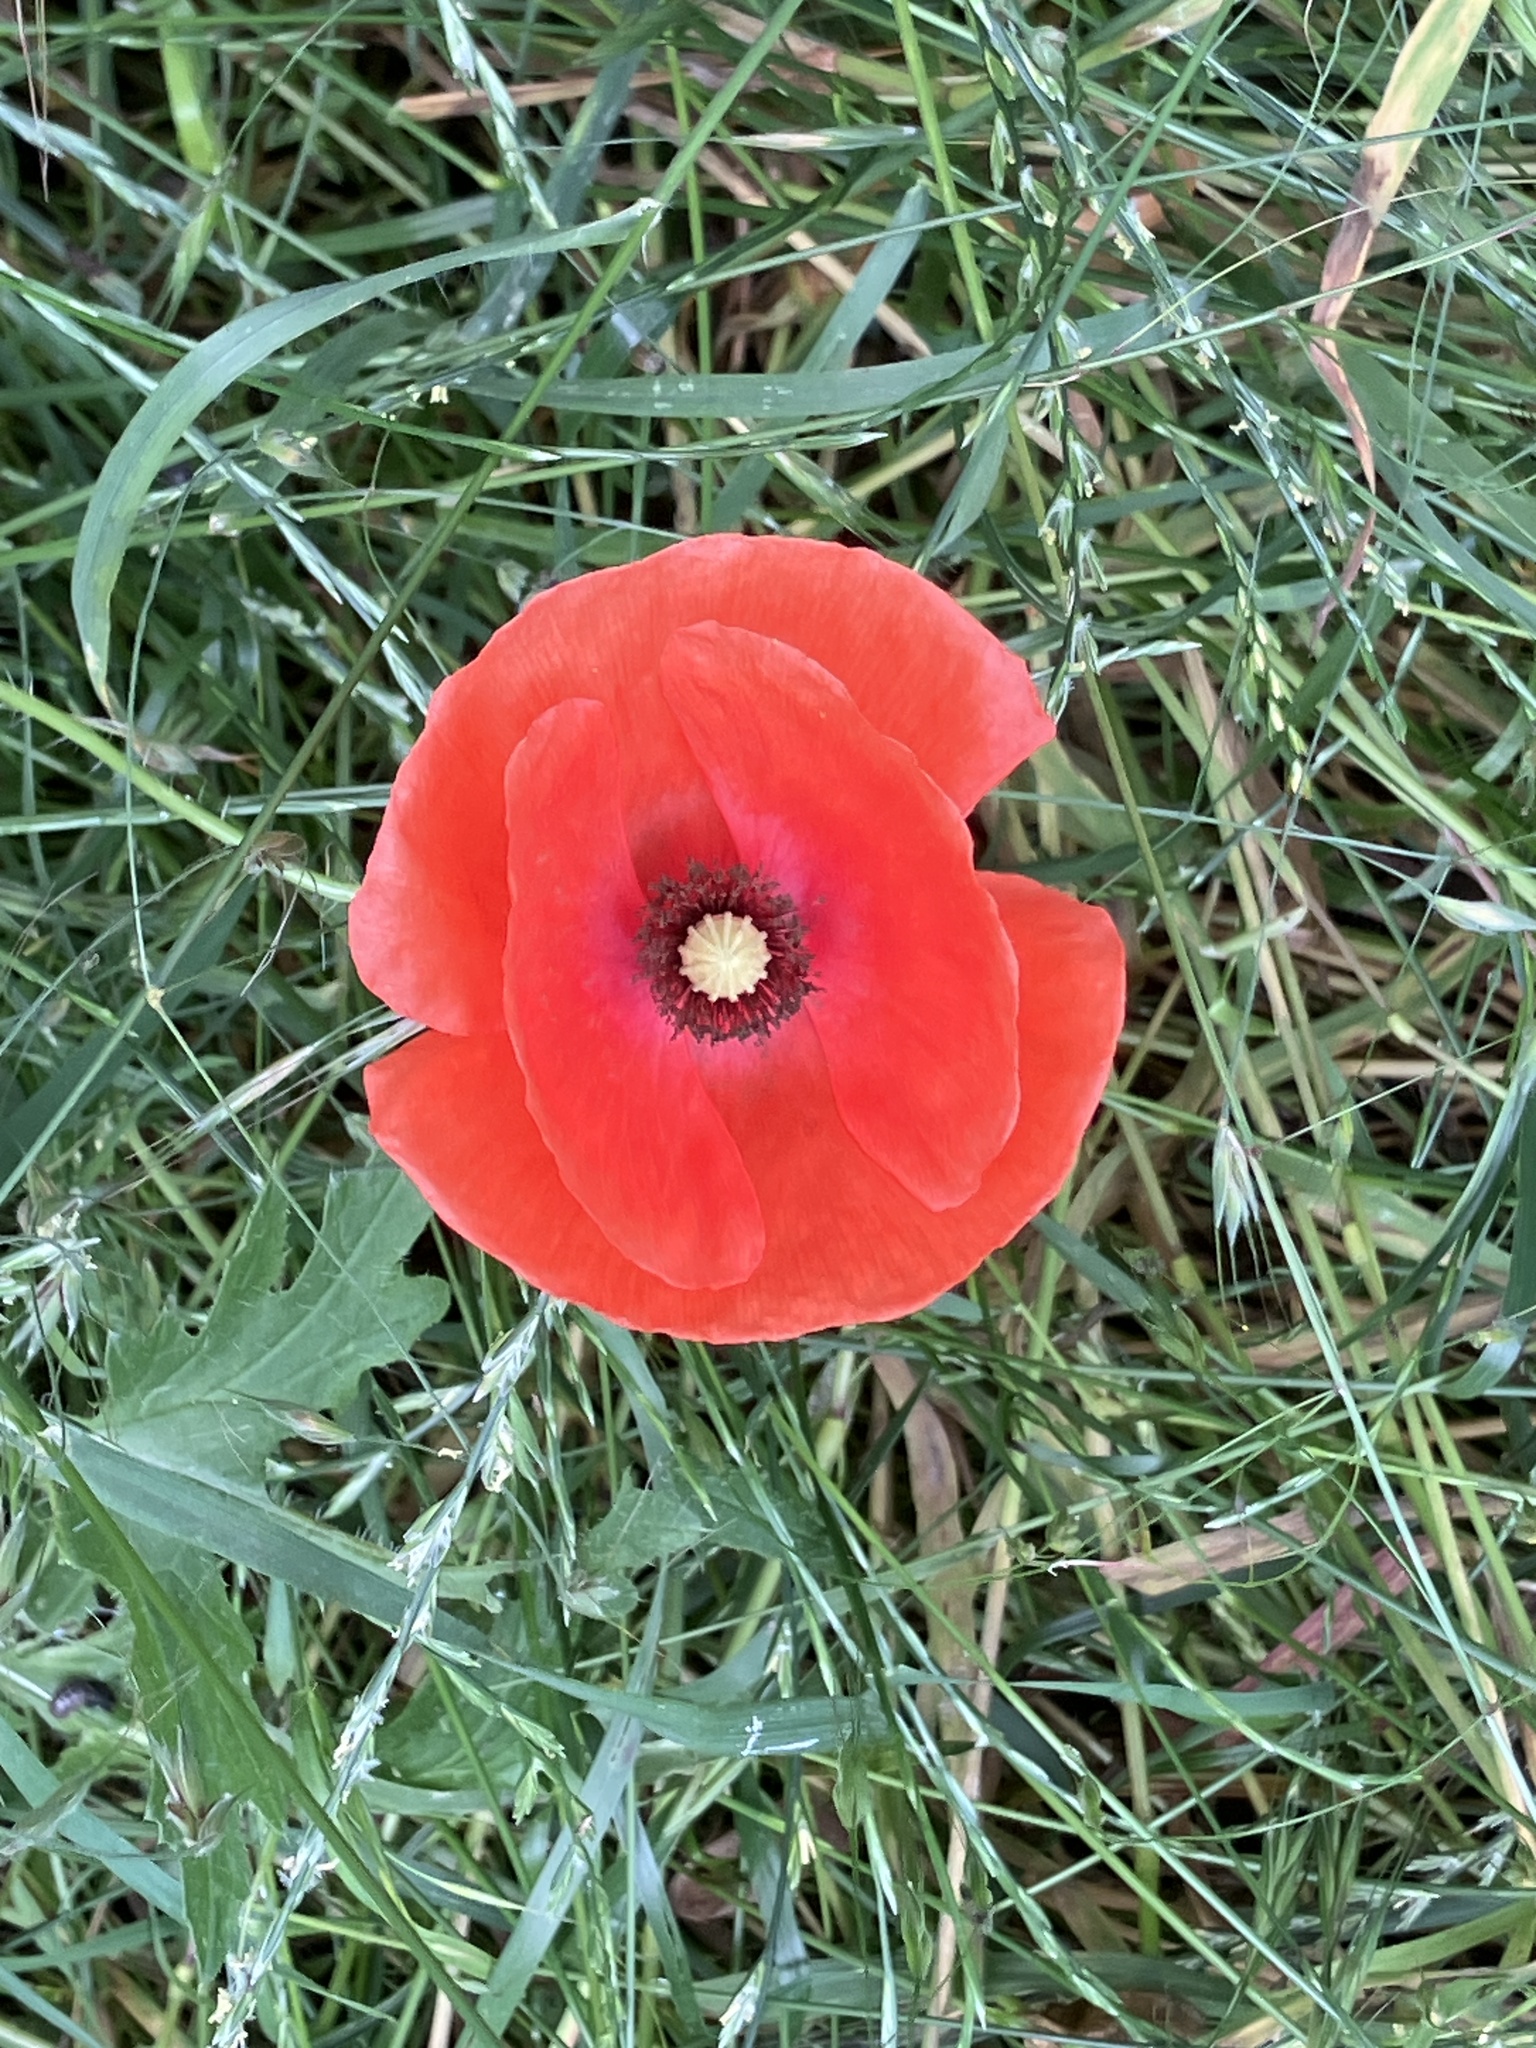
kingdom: Plantae
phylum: Tracheophyta
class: Magnoliopsida
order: Ranunculales
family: Papaveraceae
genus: Papaver
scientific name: Papaver rhoeas
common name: Corn poppy
